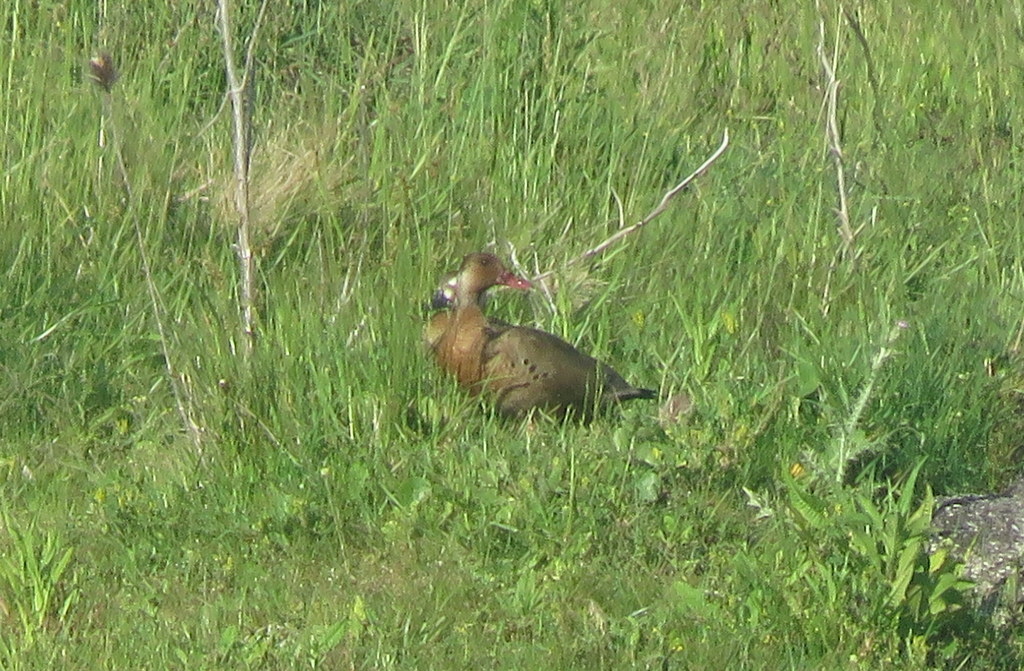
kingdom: Animalia
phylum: Chordata
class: Aves
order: Anseriformes
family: Anatidae
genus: Amazonetta
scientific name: Amazonetta brasiliensis
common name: Brazilian teal
